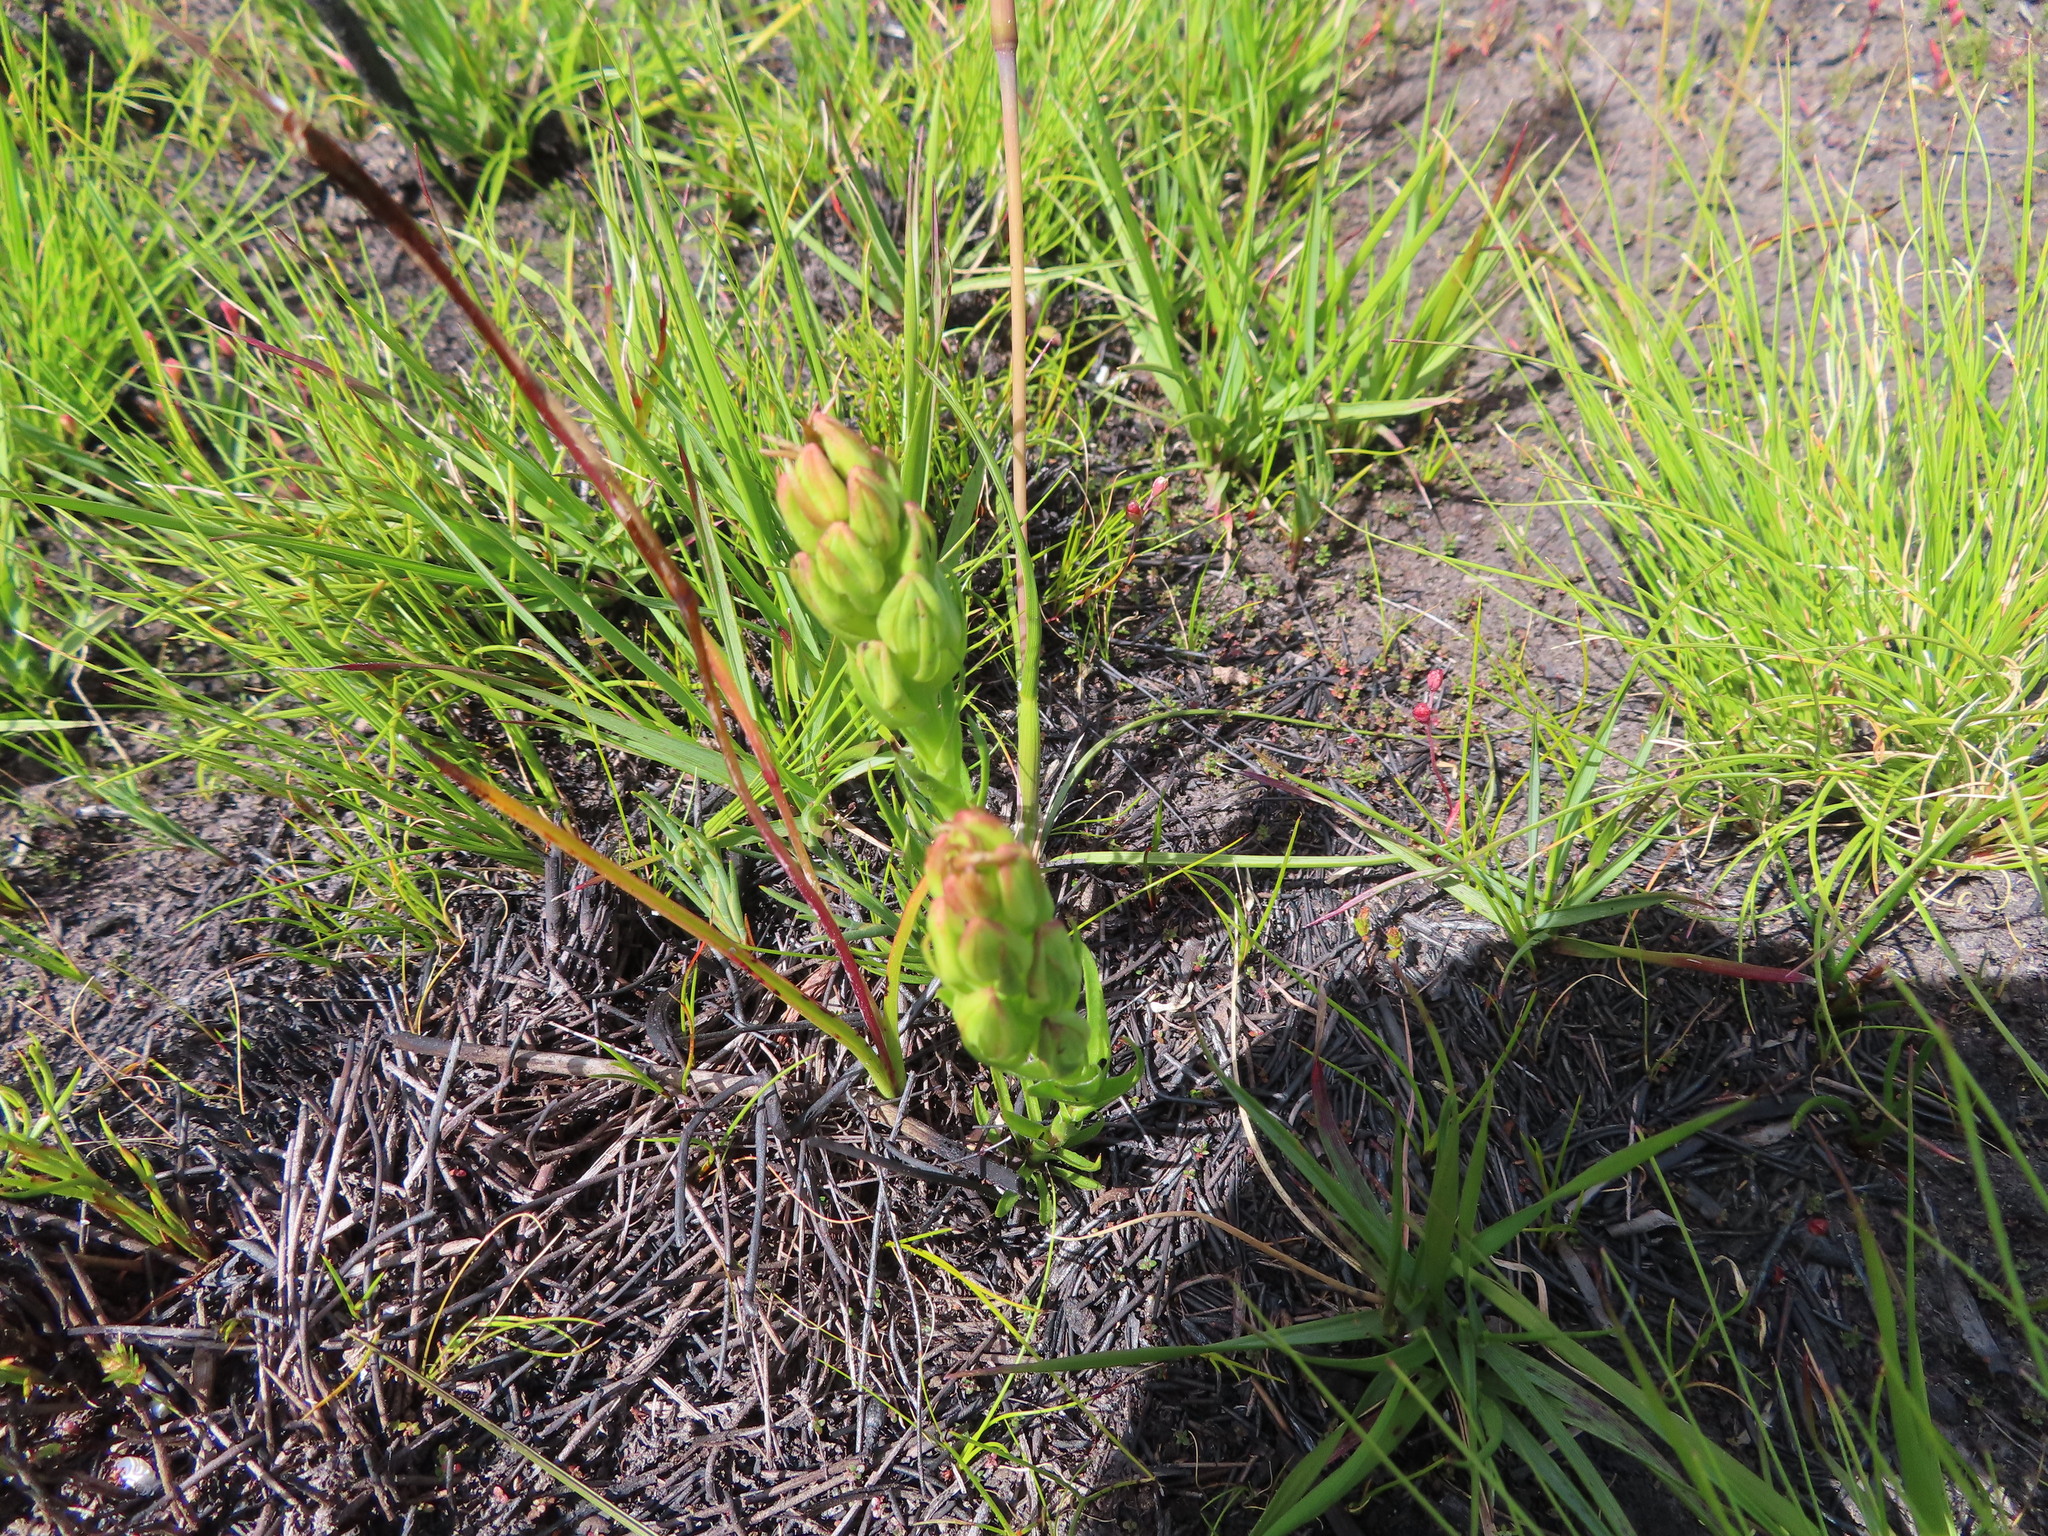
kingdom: Plantae
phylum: Tracheophyta
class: Liliopsida
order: Asparagales
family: Orchidaceae
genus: Ceratandra
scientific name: Ceratandra atrata
